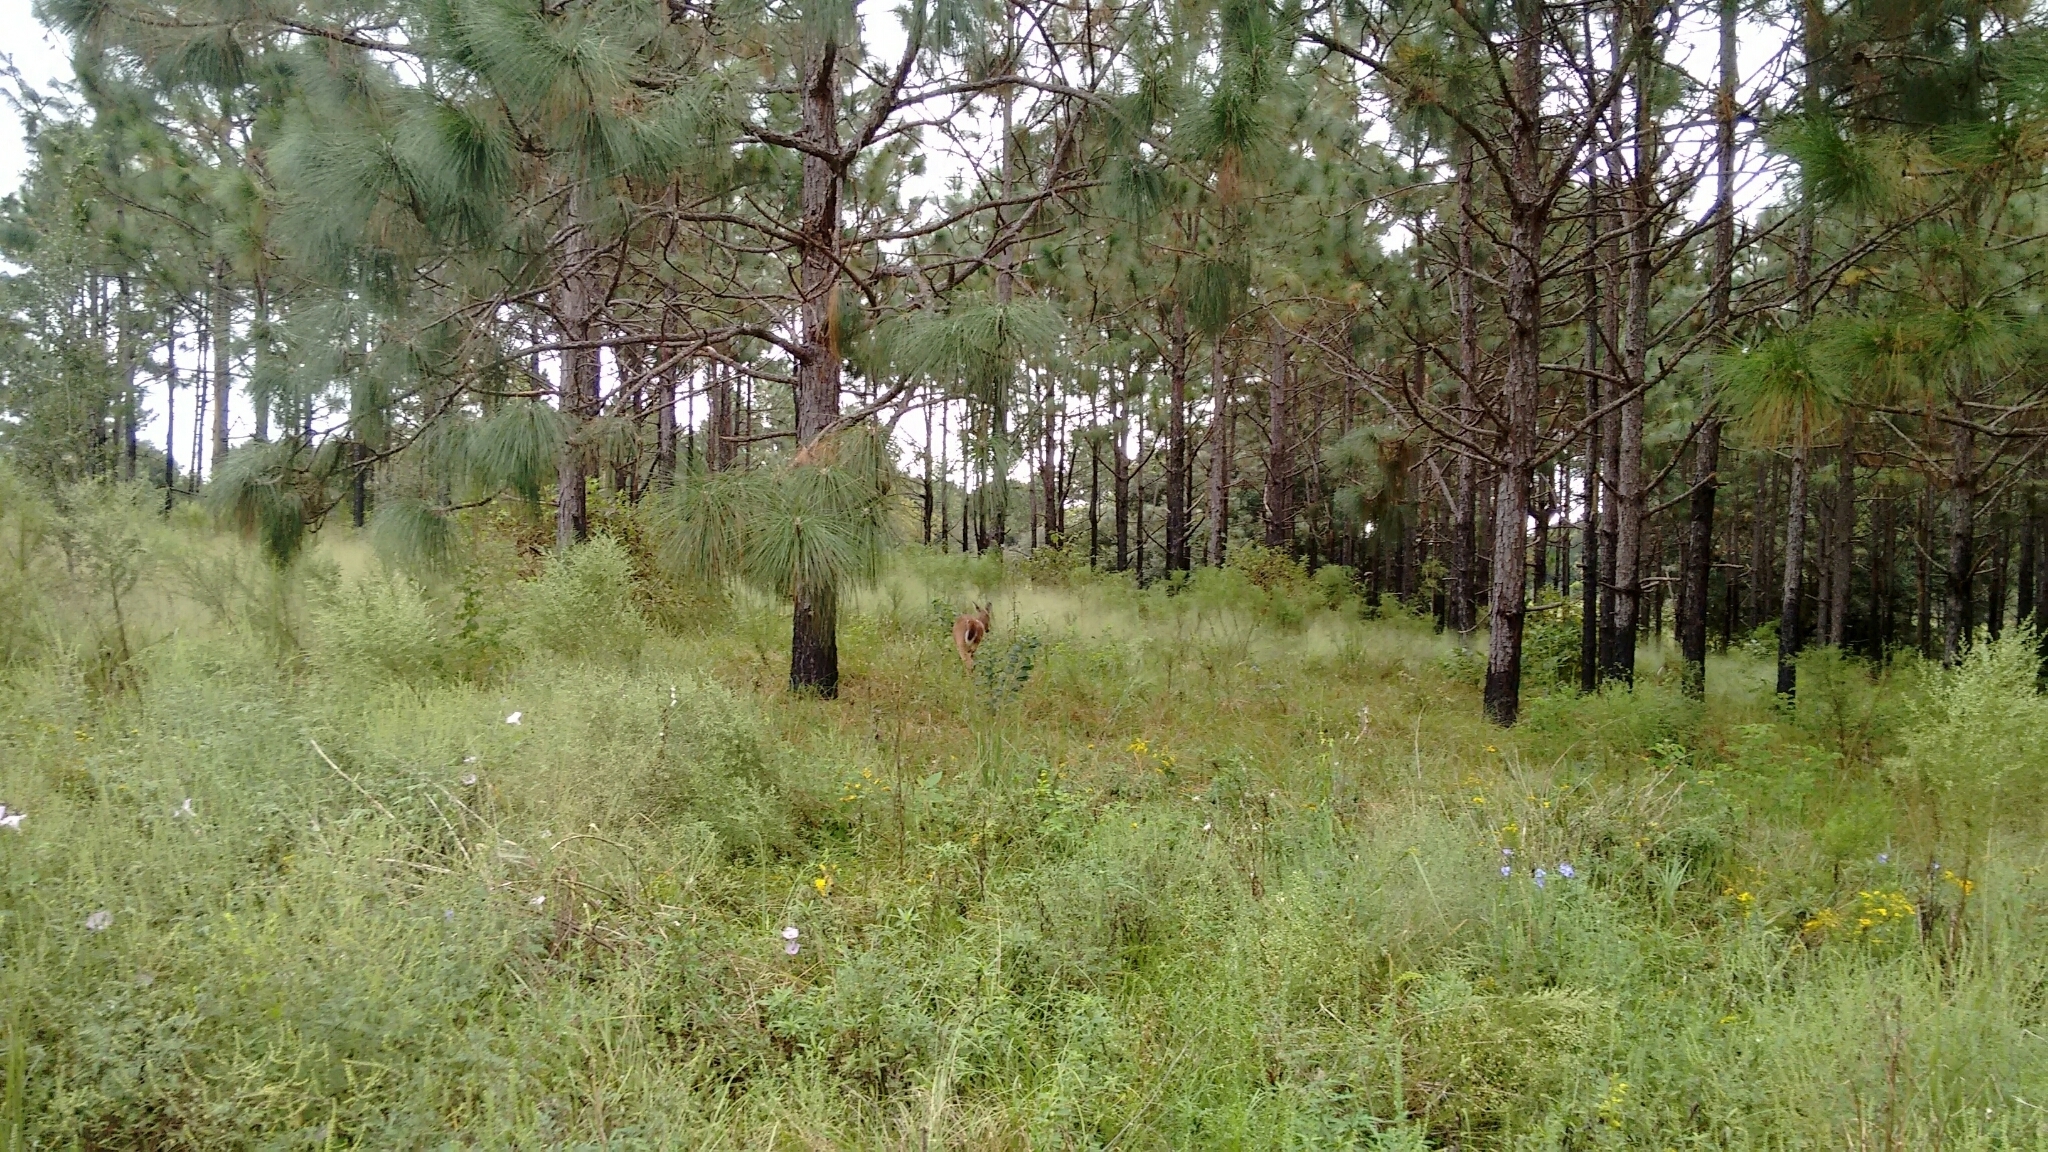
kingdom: Animalia
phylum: Chordata
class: Mammalia
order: Artiodactyla
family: Cervidae
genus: Odocoileus
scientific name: Odocoileus virginianus
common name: White-tailed deer
